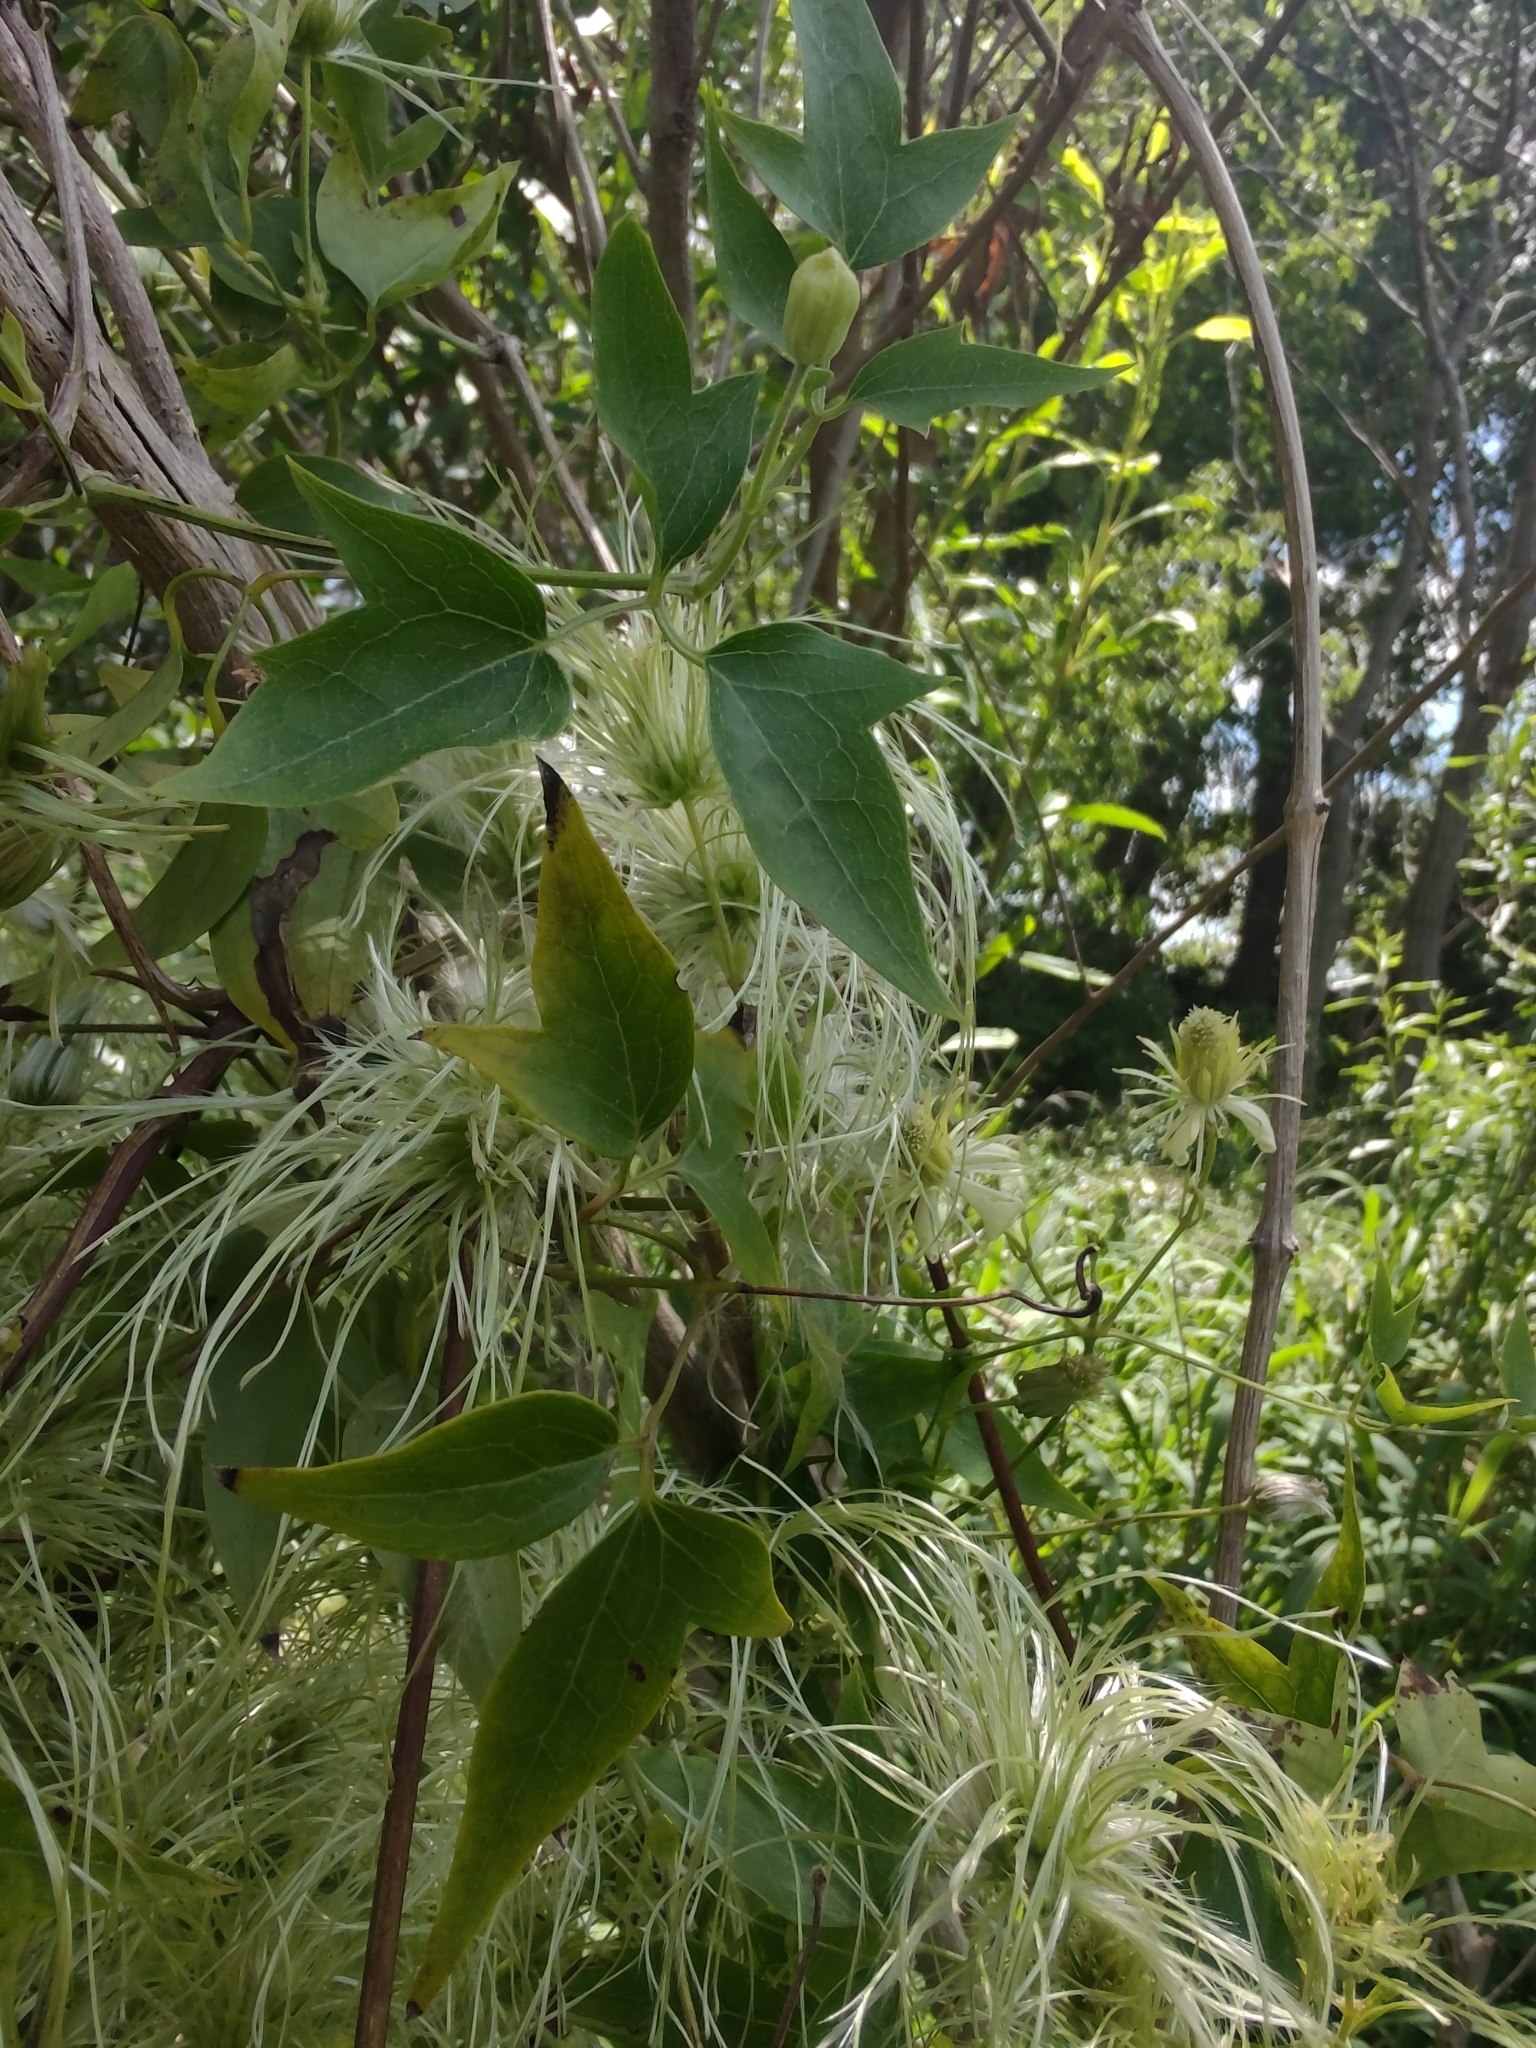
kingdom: Plantae
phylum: Tracheophyta
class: Magnoliopsida
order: Ranunculales
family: Ranunculaceae
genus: Clematis
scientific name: Clematis montevidensis
